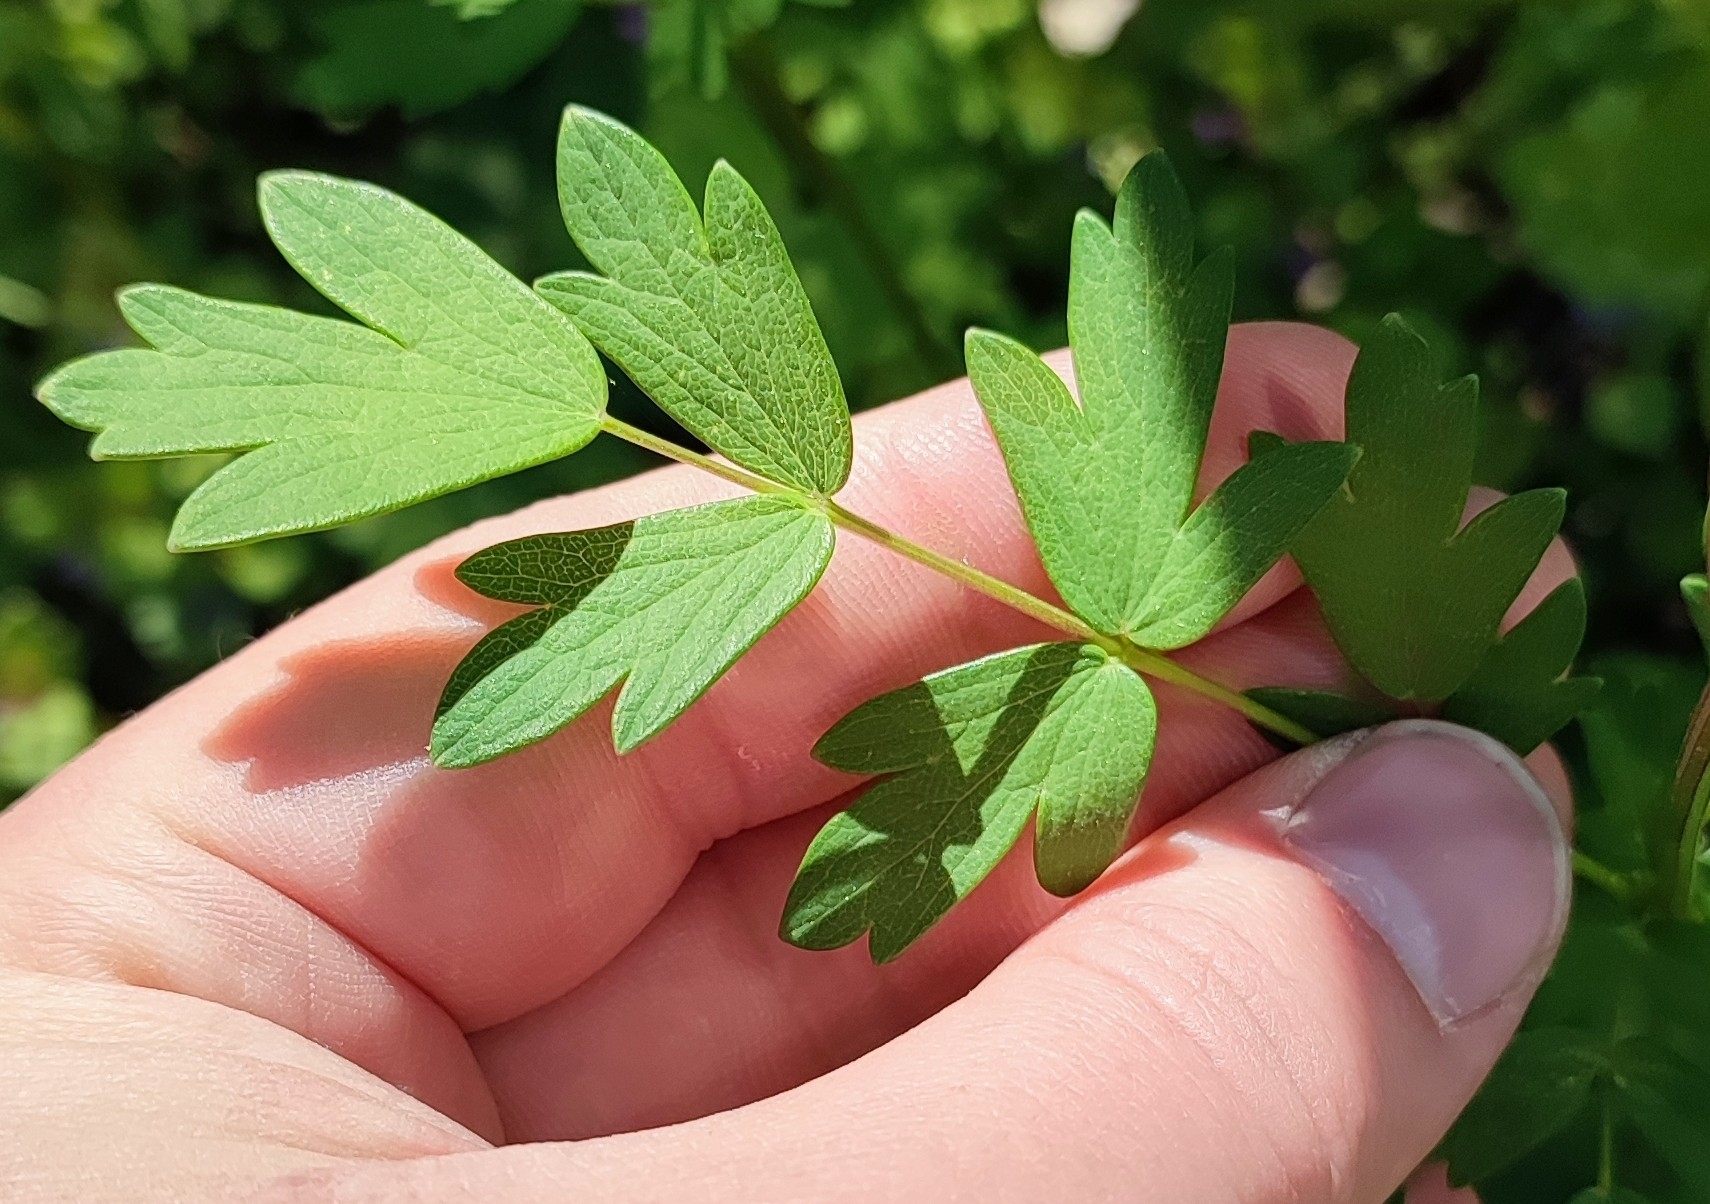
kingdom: Plantae
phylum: Tracheophyta
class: Magnoliopsida
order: Ranunculales
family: Ranunculaceae
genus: Thalictrum
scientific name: Thalictrum simplex
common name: Small meadow-rue
